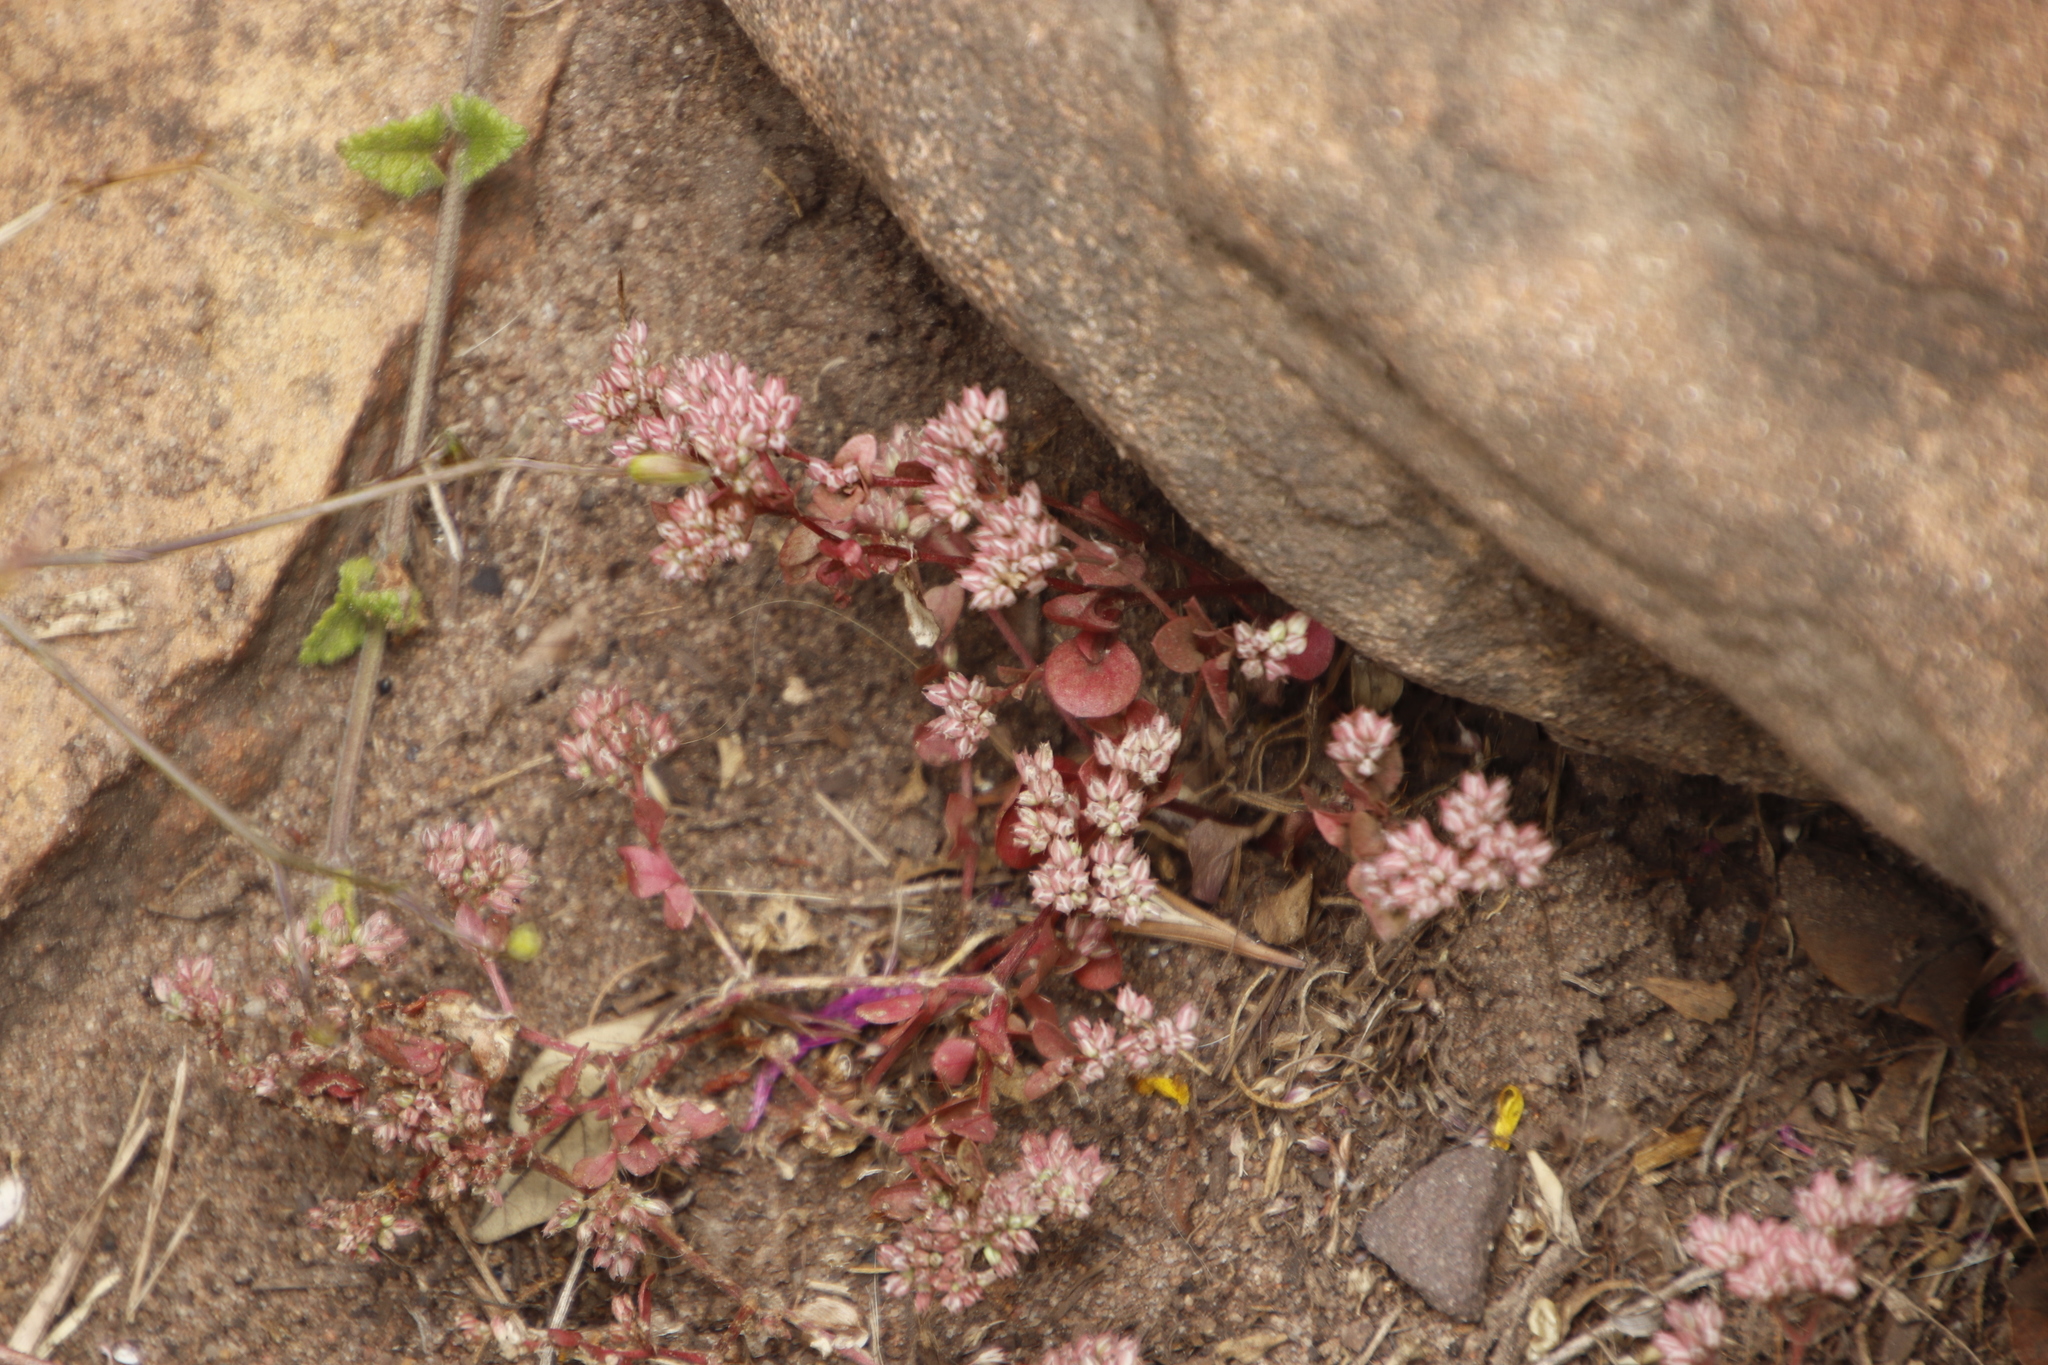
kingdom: Plantae
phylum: Tracheophyta
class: Magnoliopsida
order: Caryophyllales
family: Caryophyllaceae
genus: Polycarpon
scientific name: Polycarpon tetraphyllum
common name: Four-leaved all-seed
